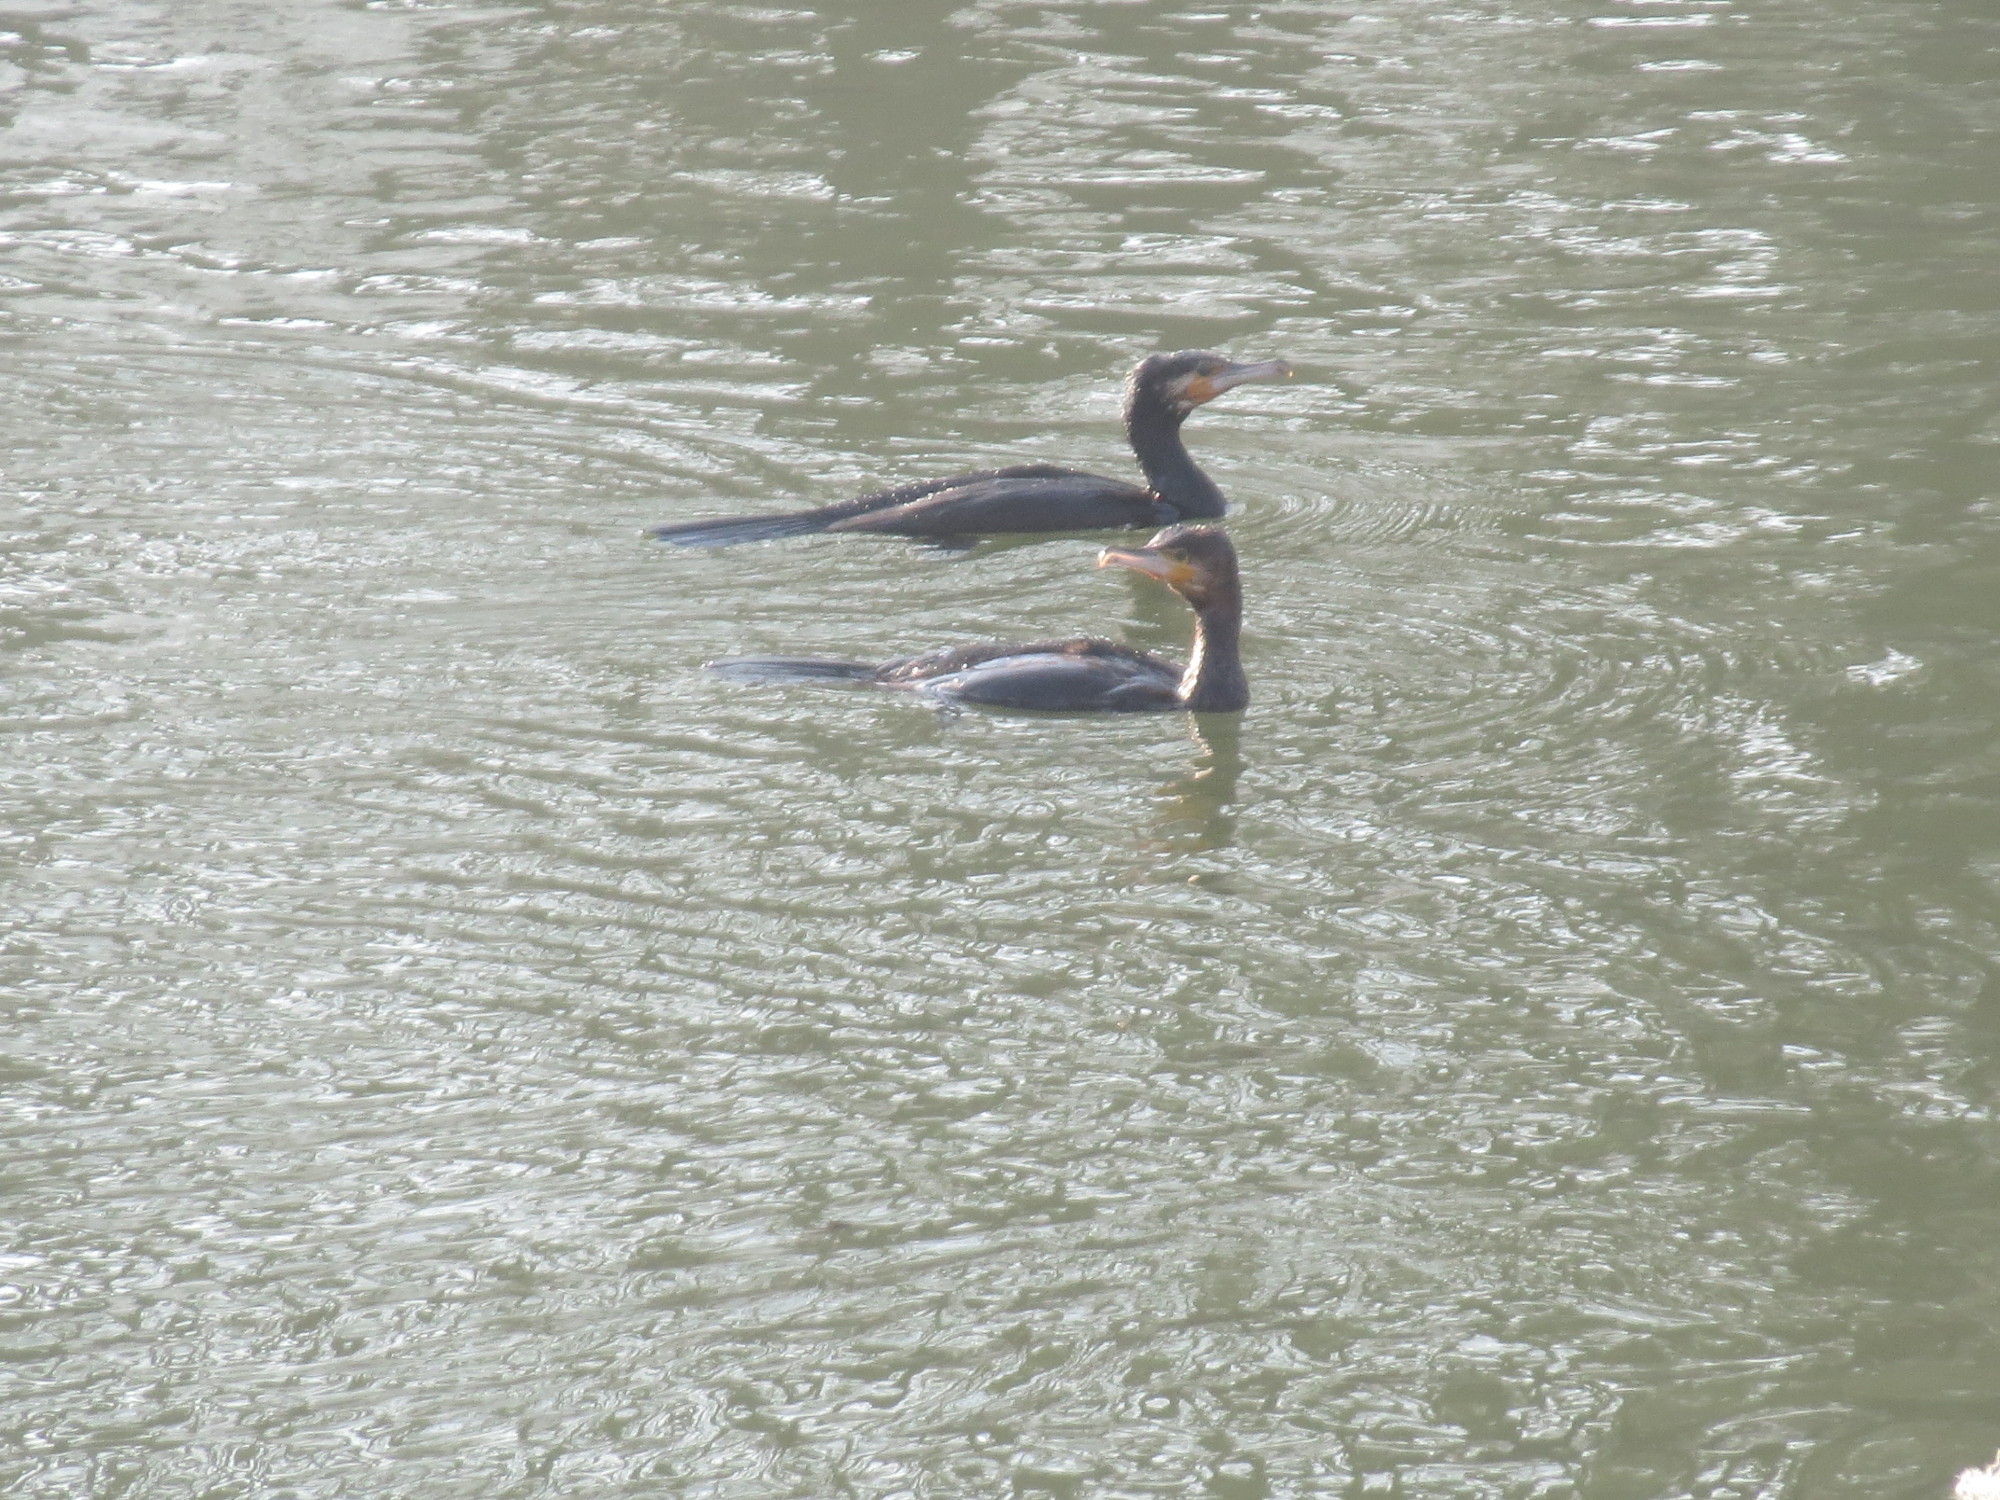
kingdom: Animalia
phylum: Chordata
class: Aves
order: Suliformes
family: Phalacrocoracidae
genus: Phalacrocorax
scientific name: Phalacrocorax carbo
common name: Great cormorant
